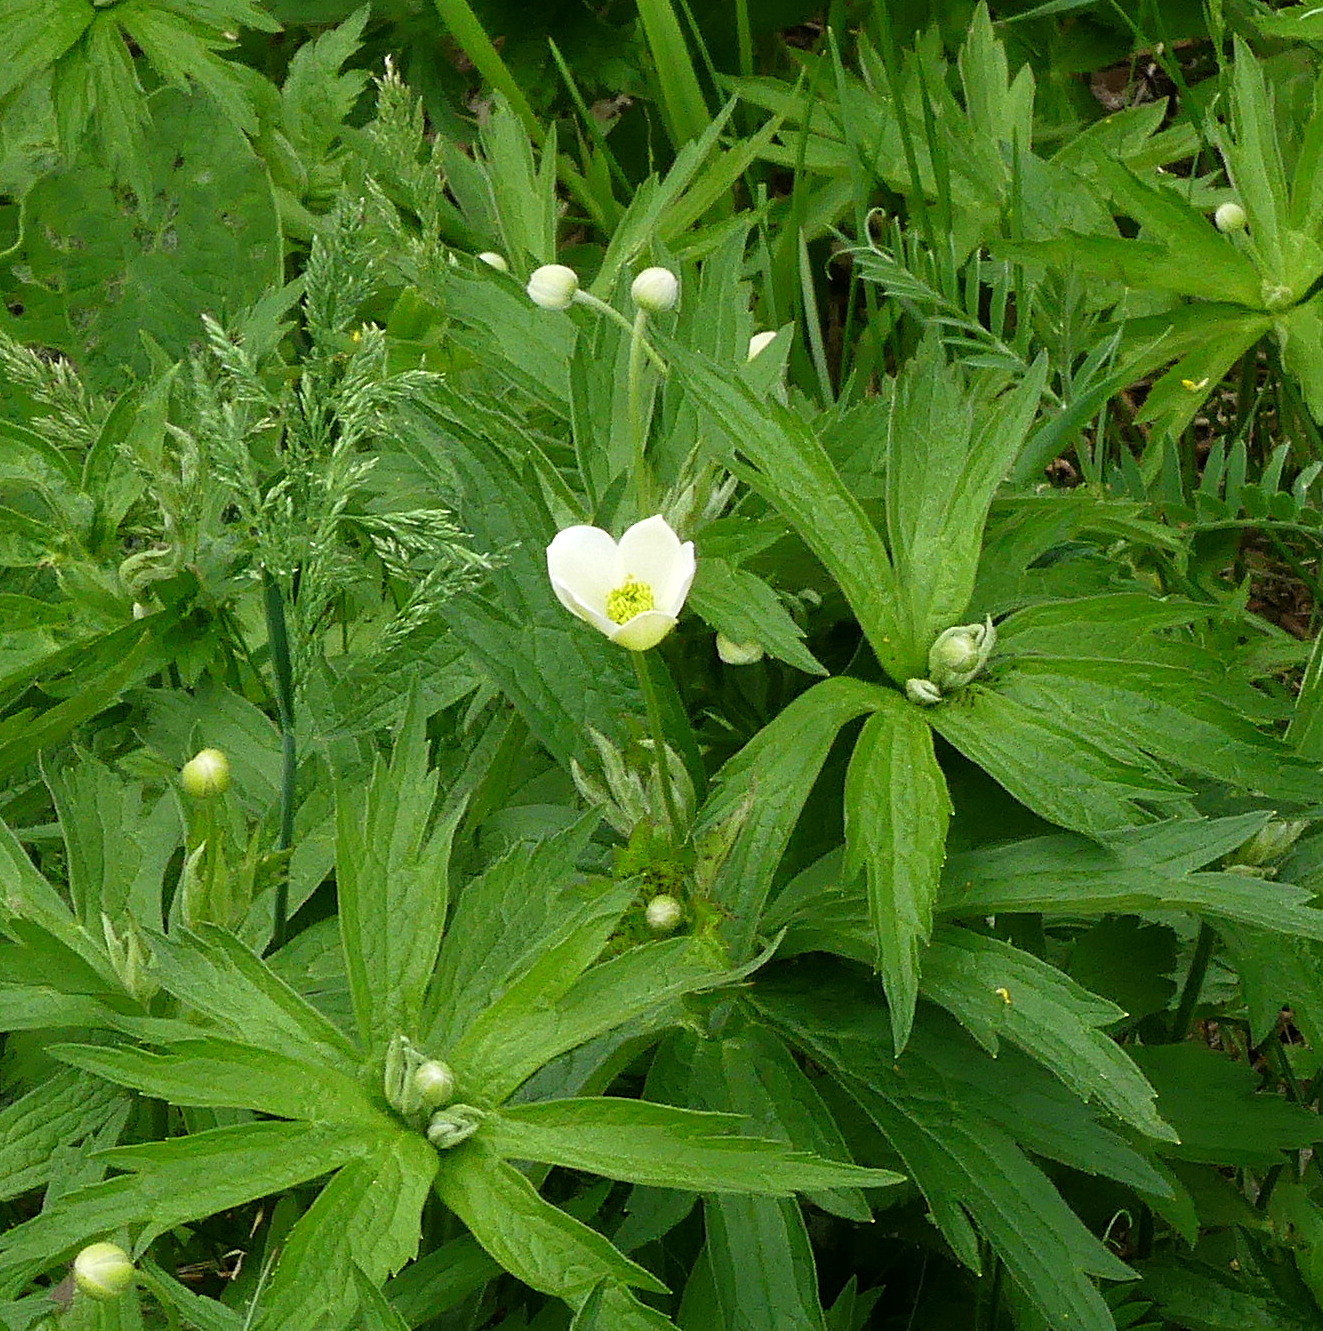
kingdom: Plantae
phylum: Tracheophyta
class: Magnoliopsida
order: Ranunculales
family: Ranunculaceae
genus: Anemonastrum
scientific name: Anemonastrum canadense
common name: Canada anemone
